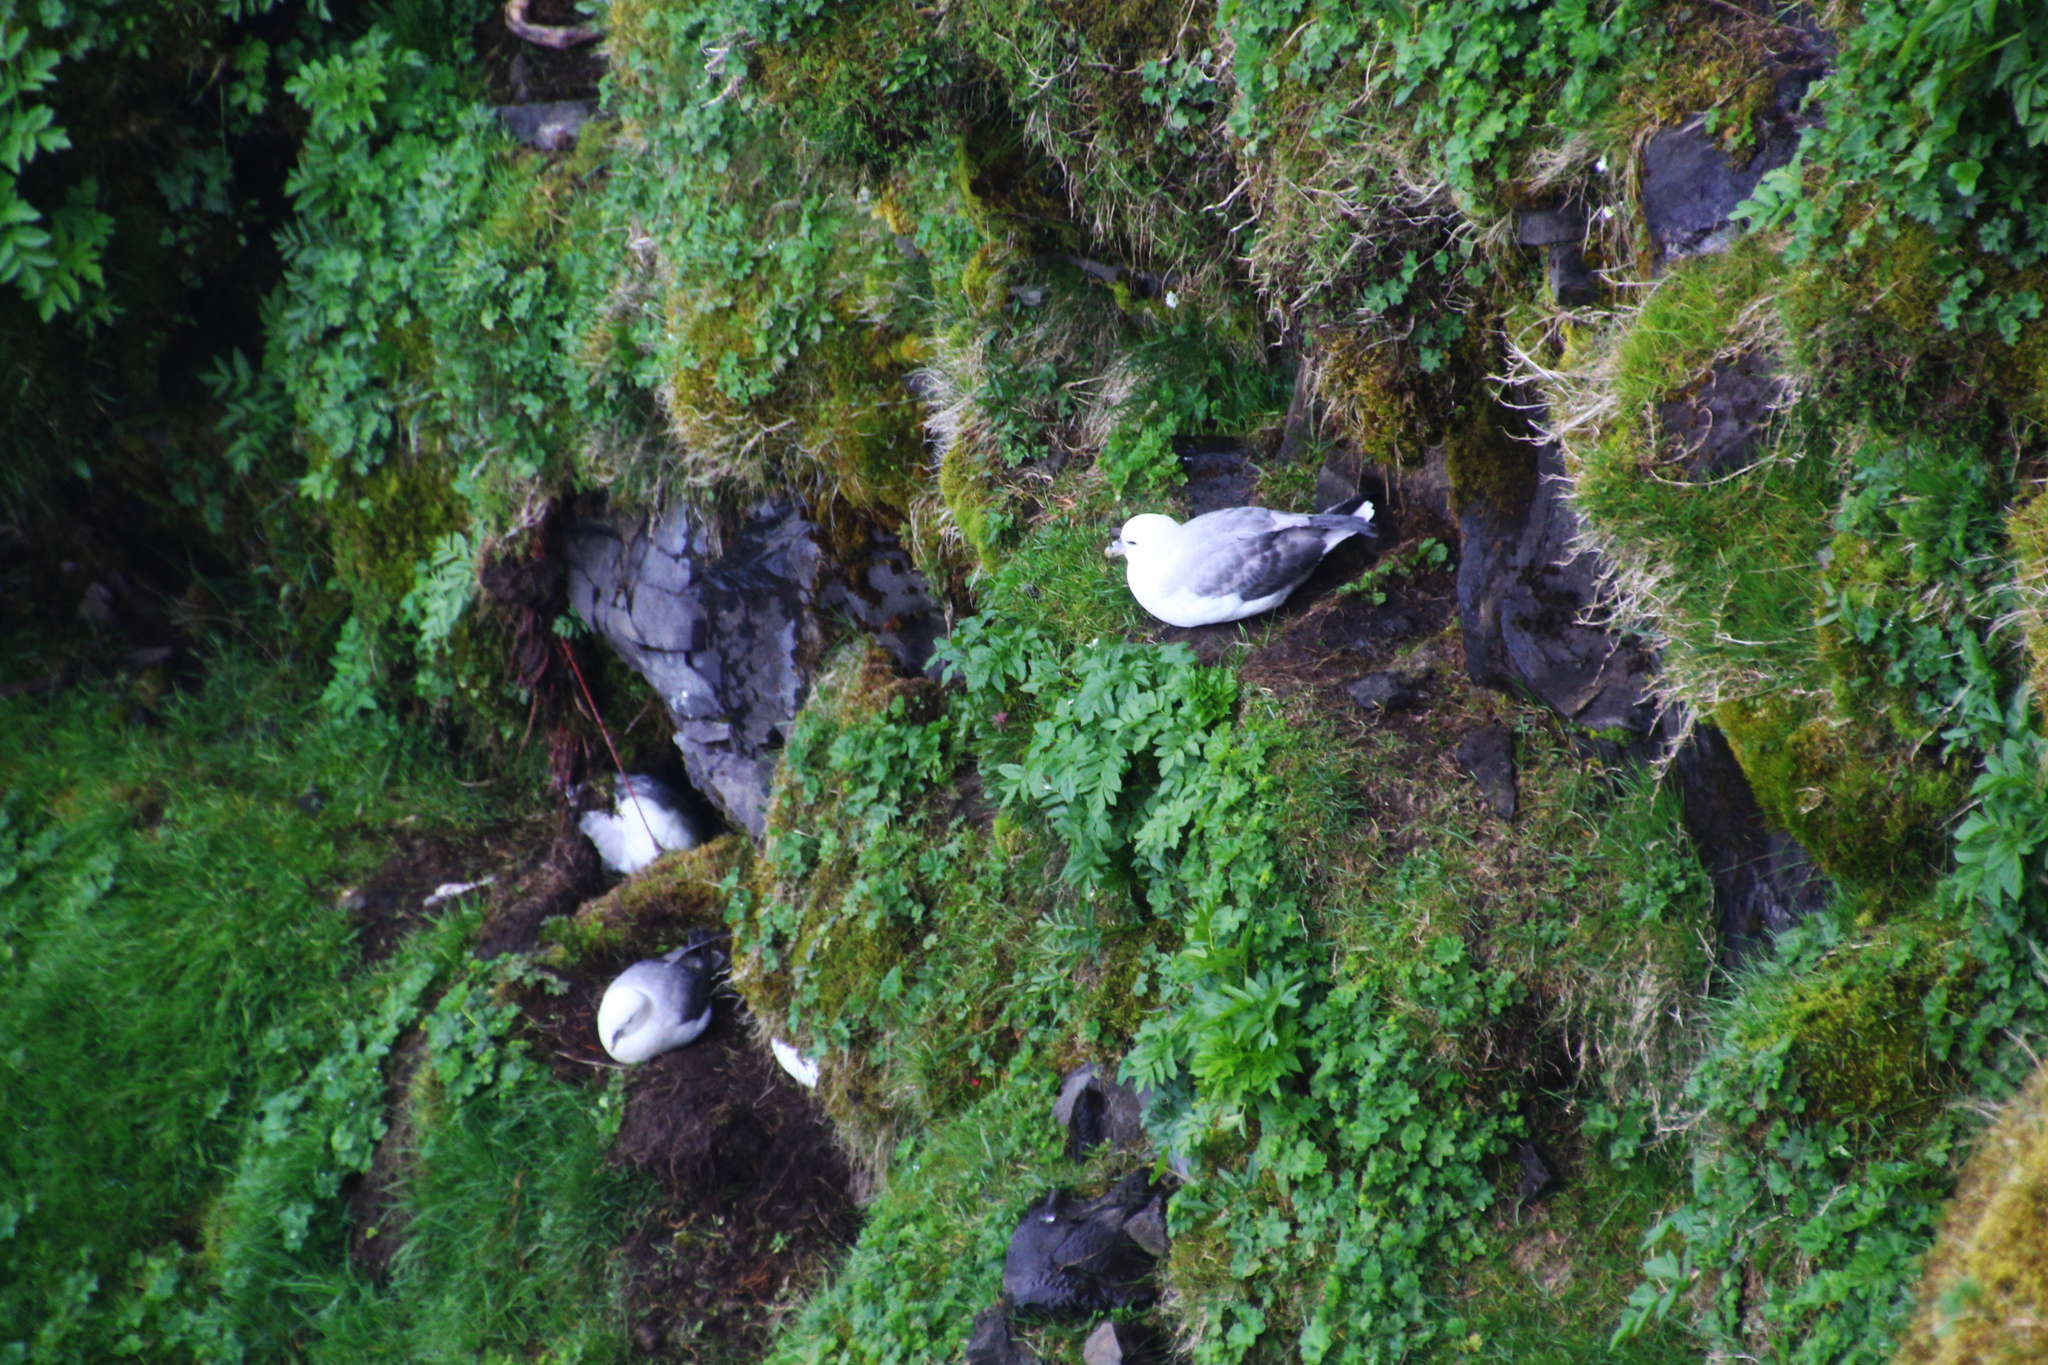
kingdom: Animalia
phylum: Chordata
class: Aves
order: Procellariiformes
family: Procellariidae
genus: Fulmarus
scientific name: Fulmarus glacialis
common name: Northern fulmar
